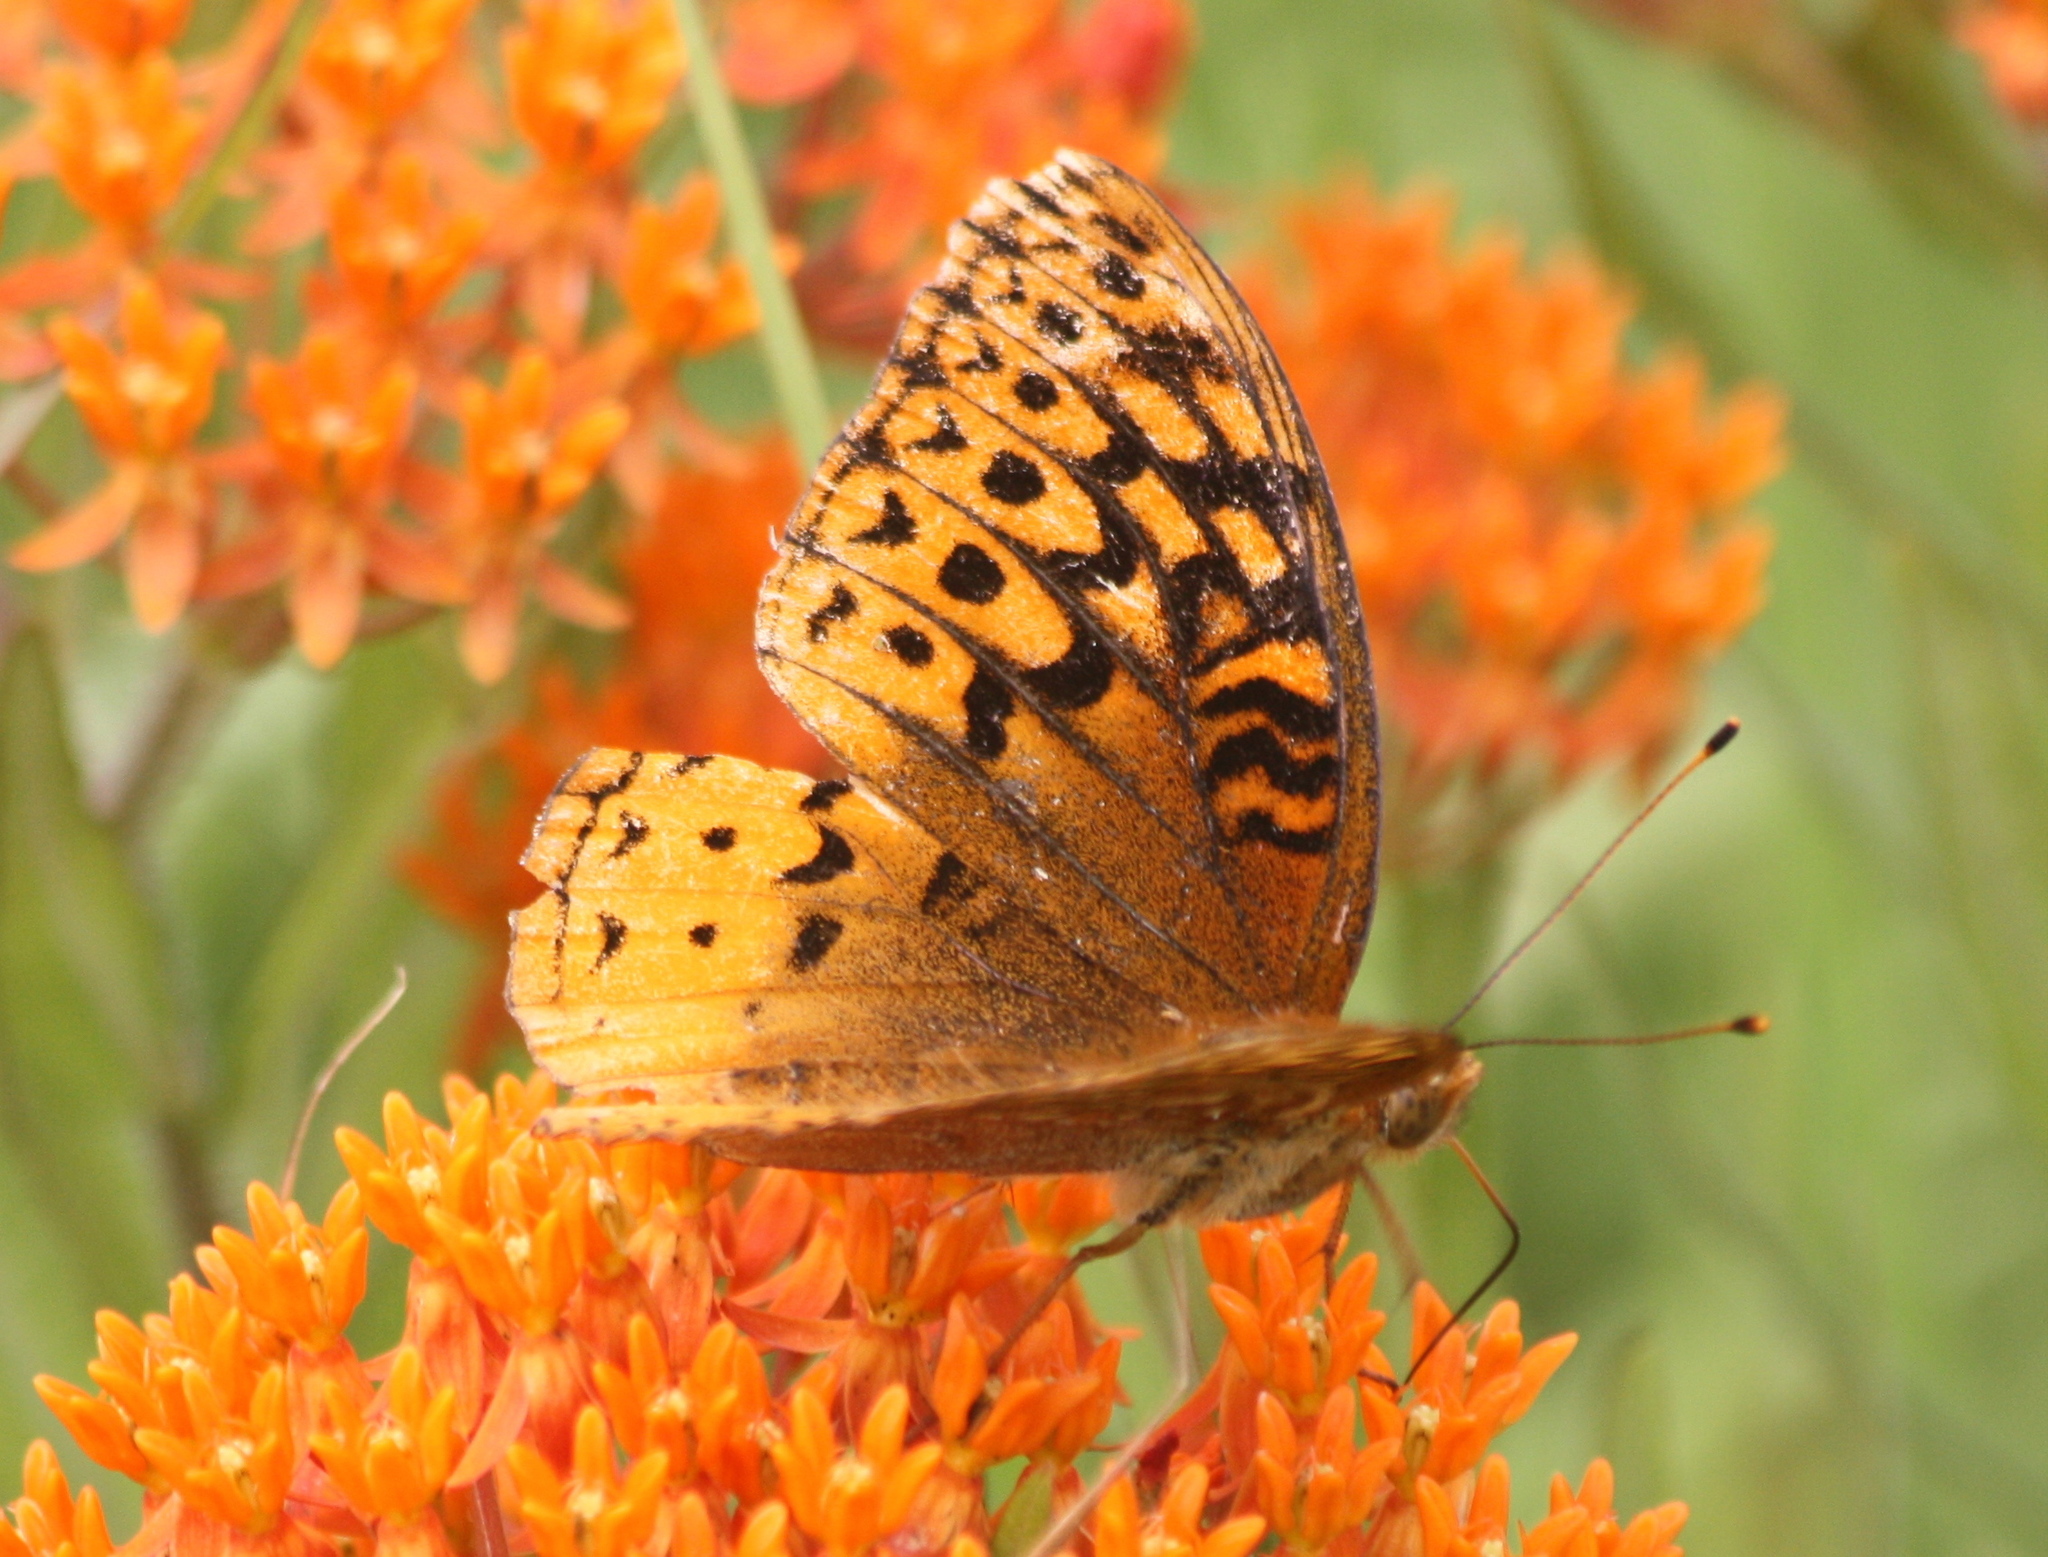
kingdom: Animalia
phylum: Arthropoda
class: Insecta
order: Lepidoptera
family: Nymphalidae
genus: Speyeria
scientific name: Speyeria cybele
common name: Great spangled fritillary
